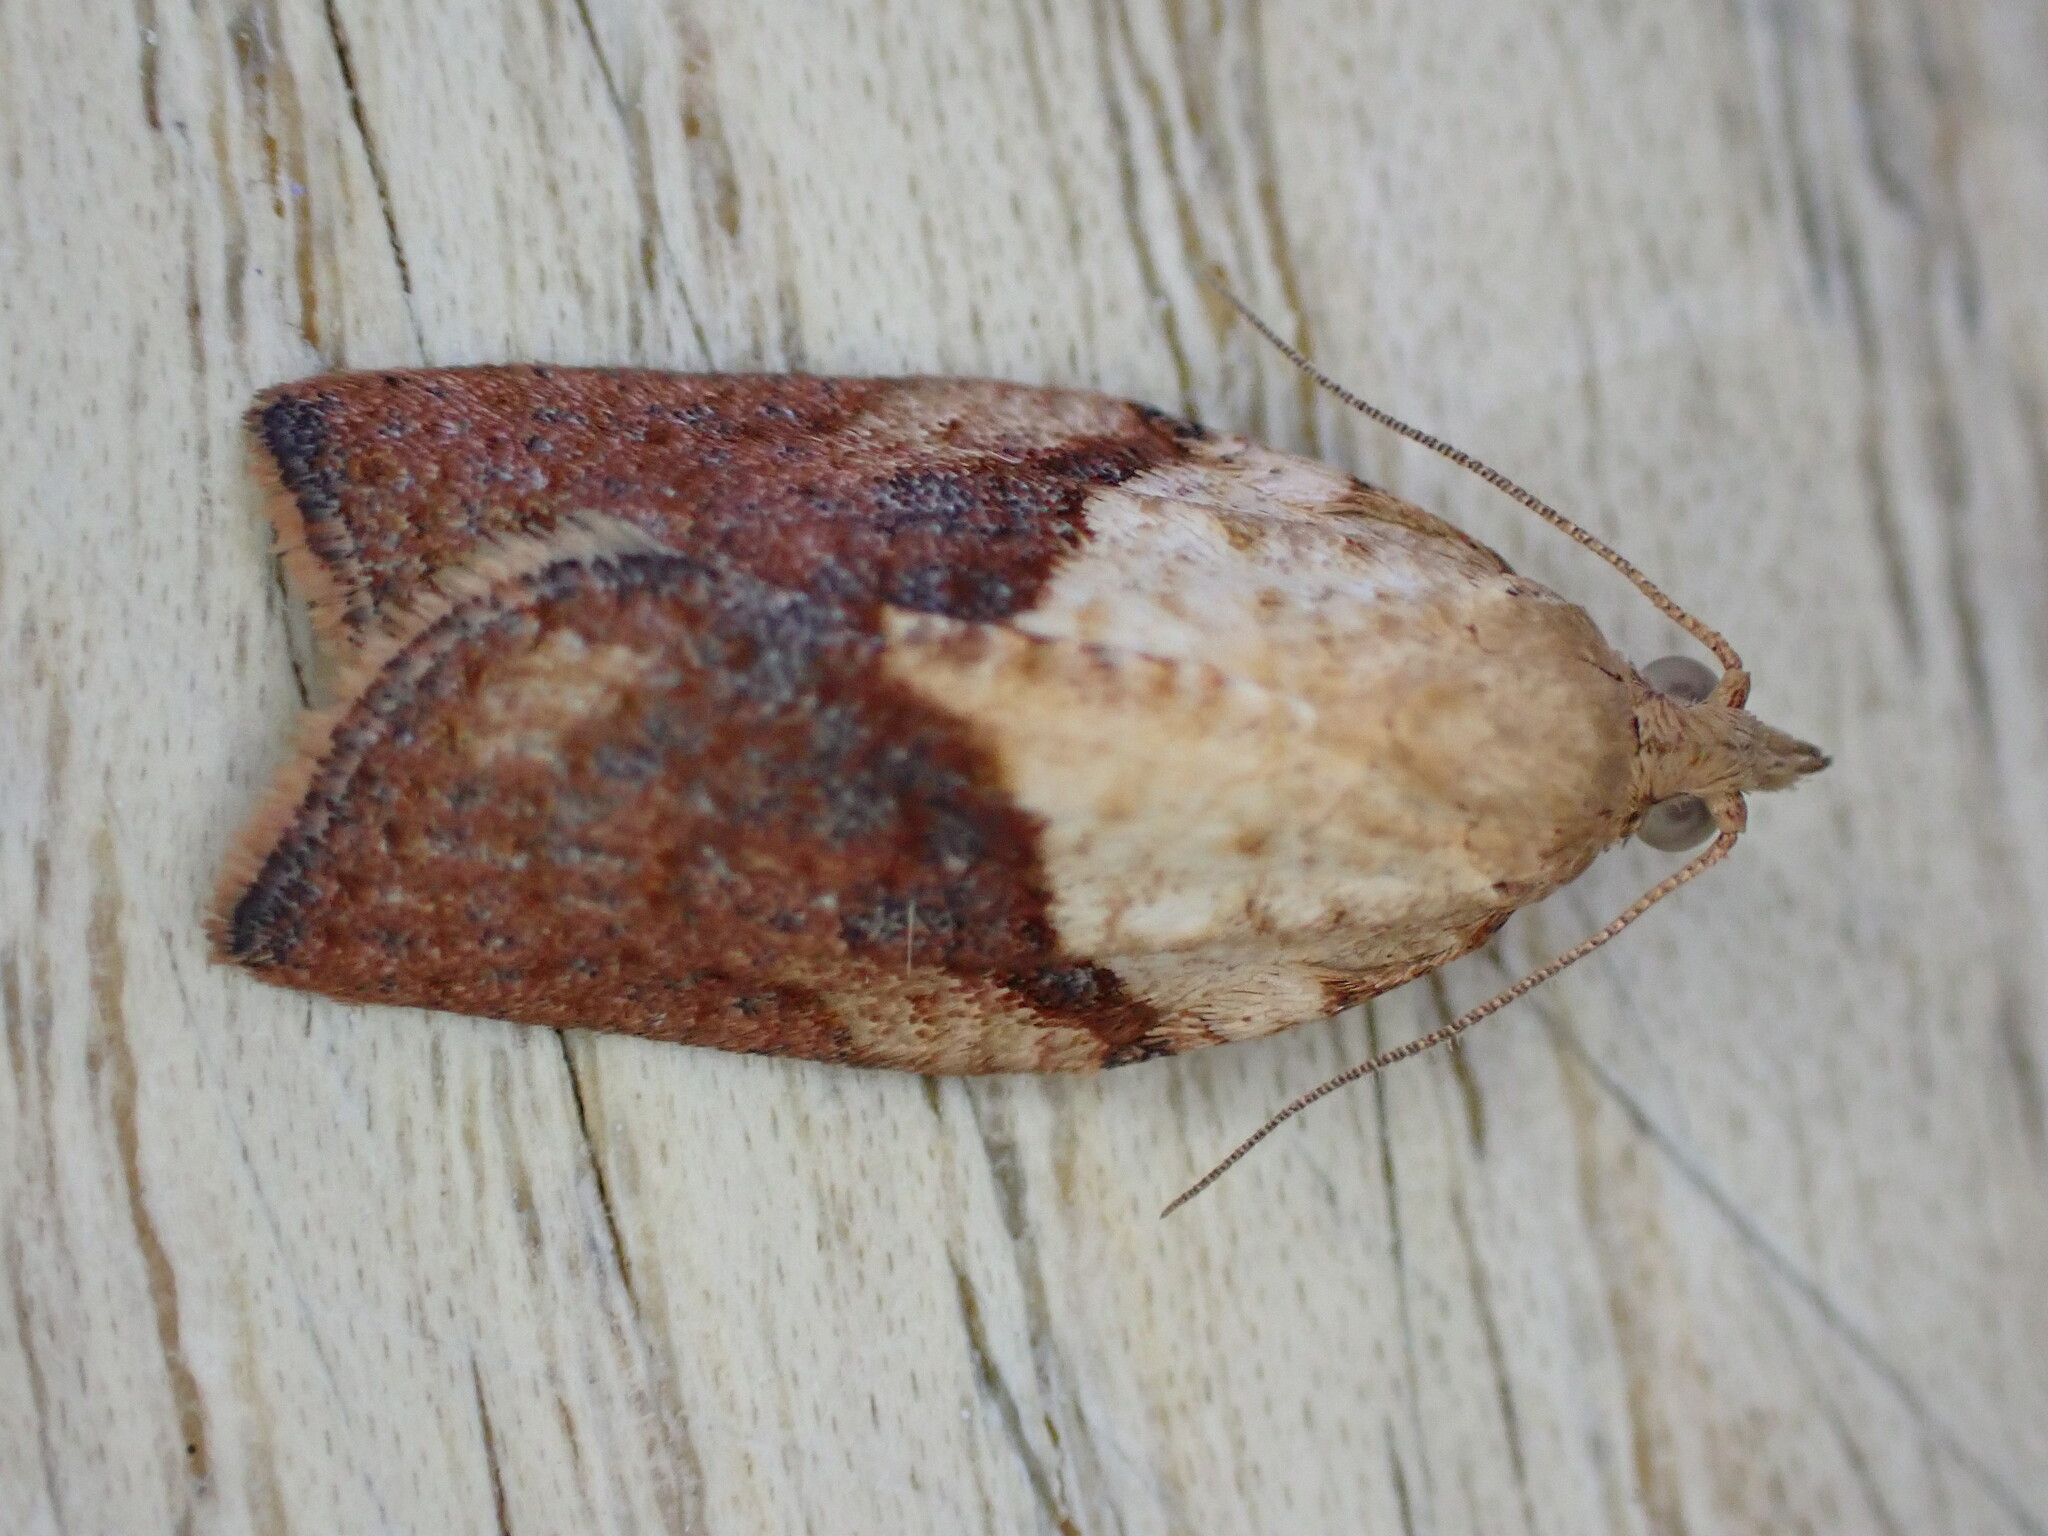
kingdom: Animalia
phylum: Arthropoda
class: Insecta
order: Lepidoptera
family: Tortricidae
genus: Epiphyas
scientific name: Epiphyas postvittana
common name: Light brown apple moth
